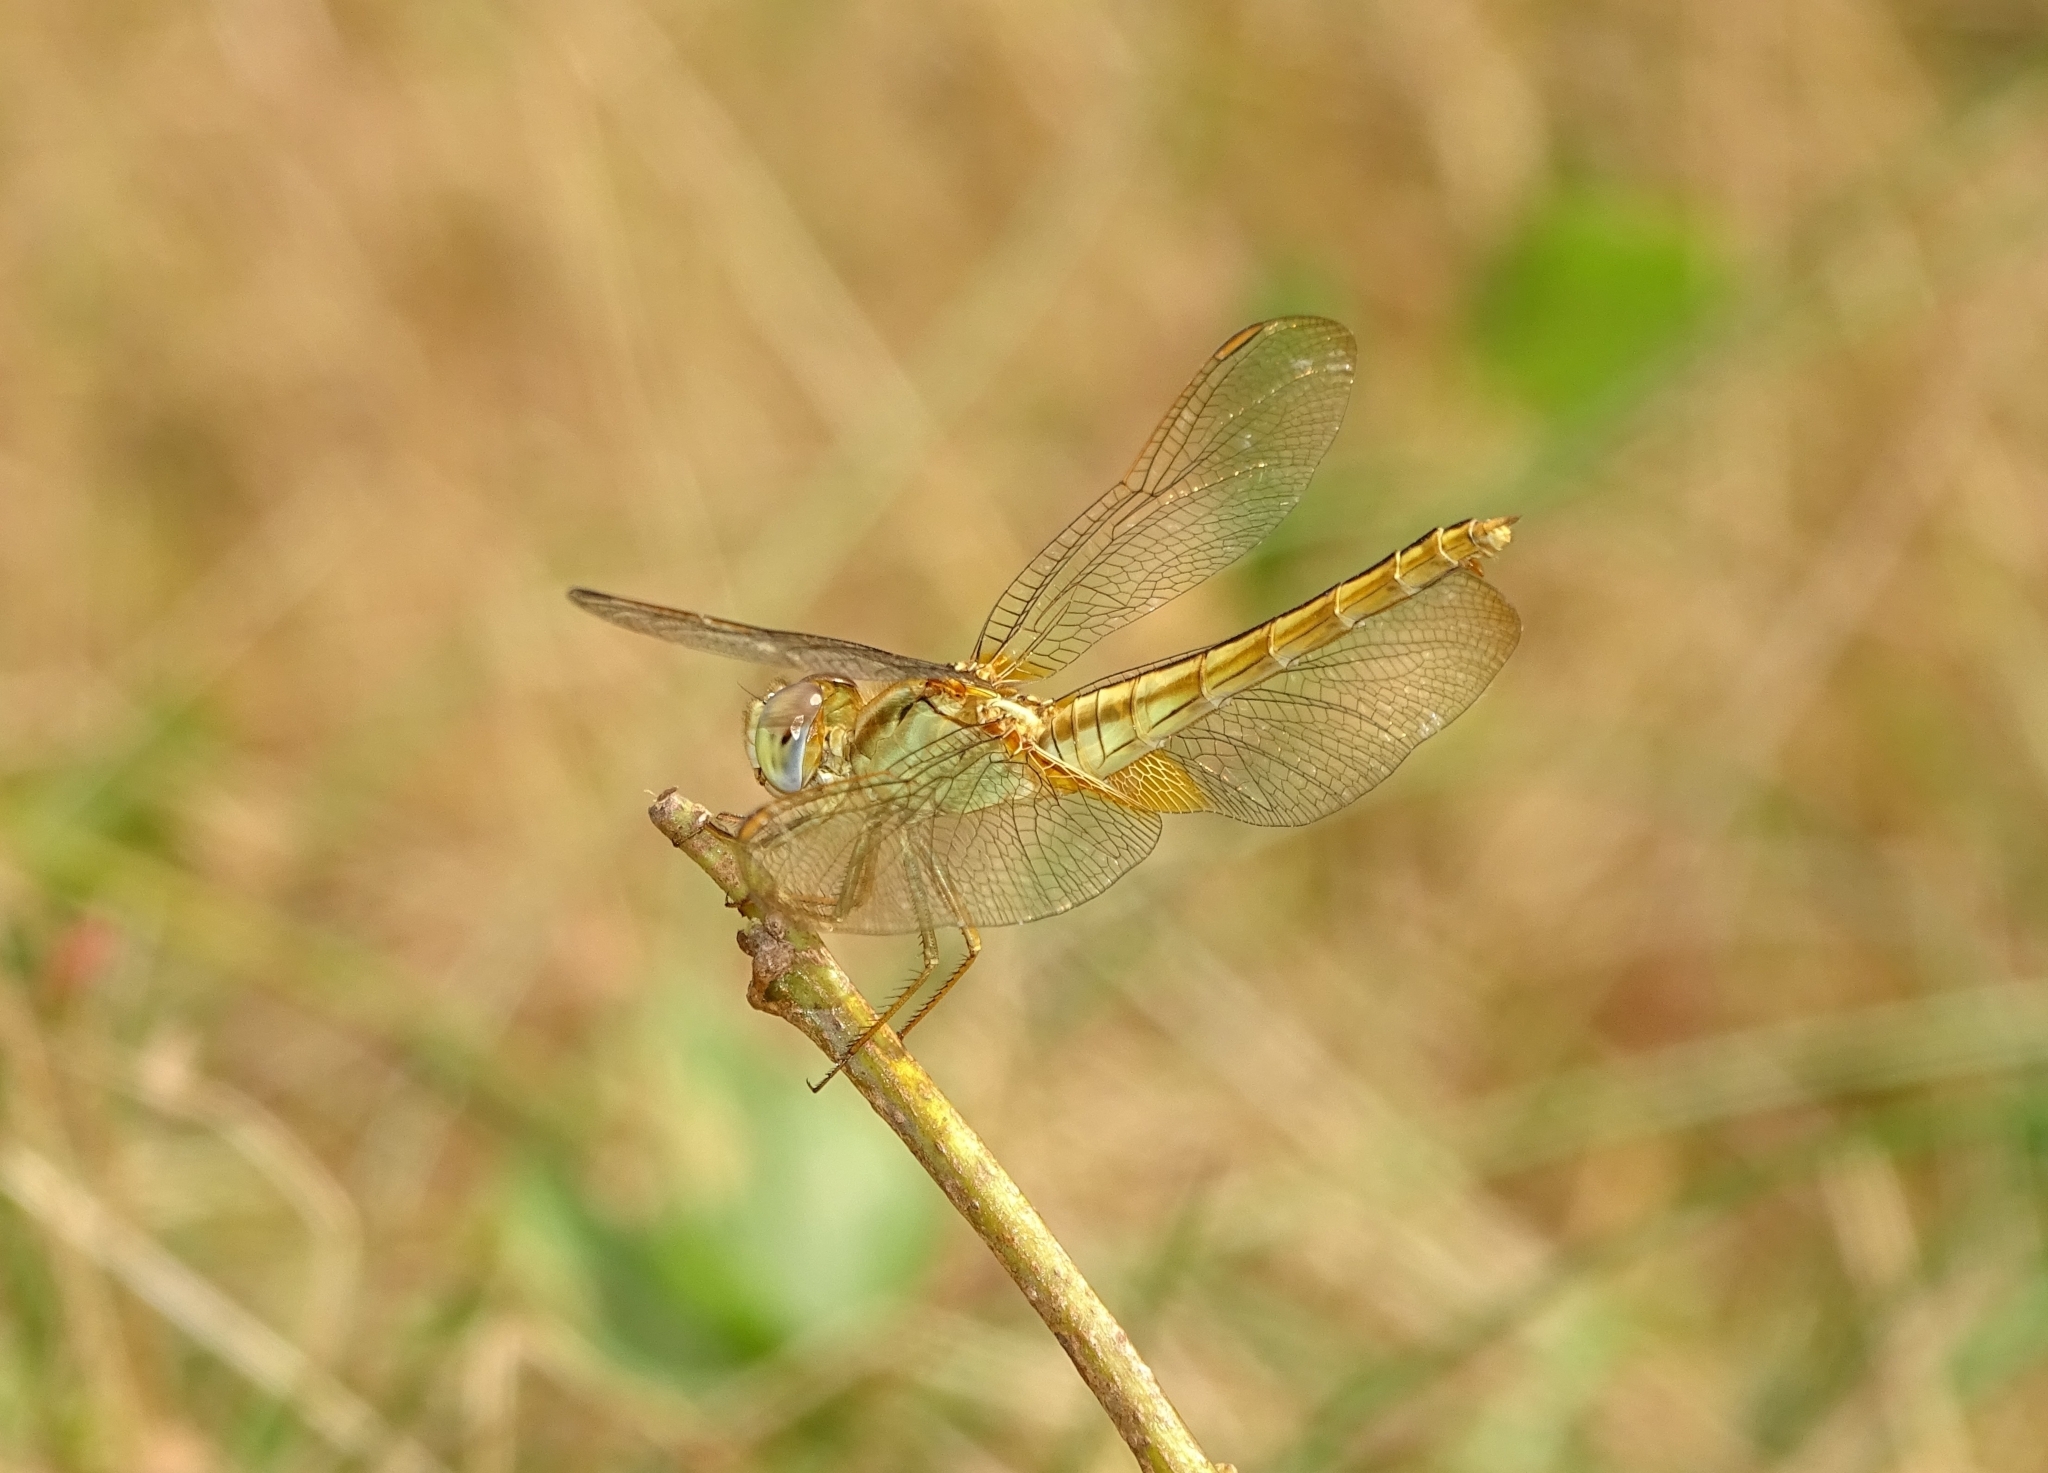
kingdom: Animalia
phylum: Arthropoda
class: Insecta
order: Odonata
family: Libellulidae
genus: Crocothemis
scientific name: Crocothemis servilia
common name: Scarlet skimmer
